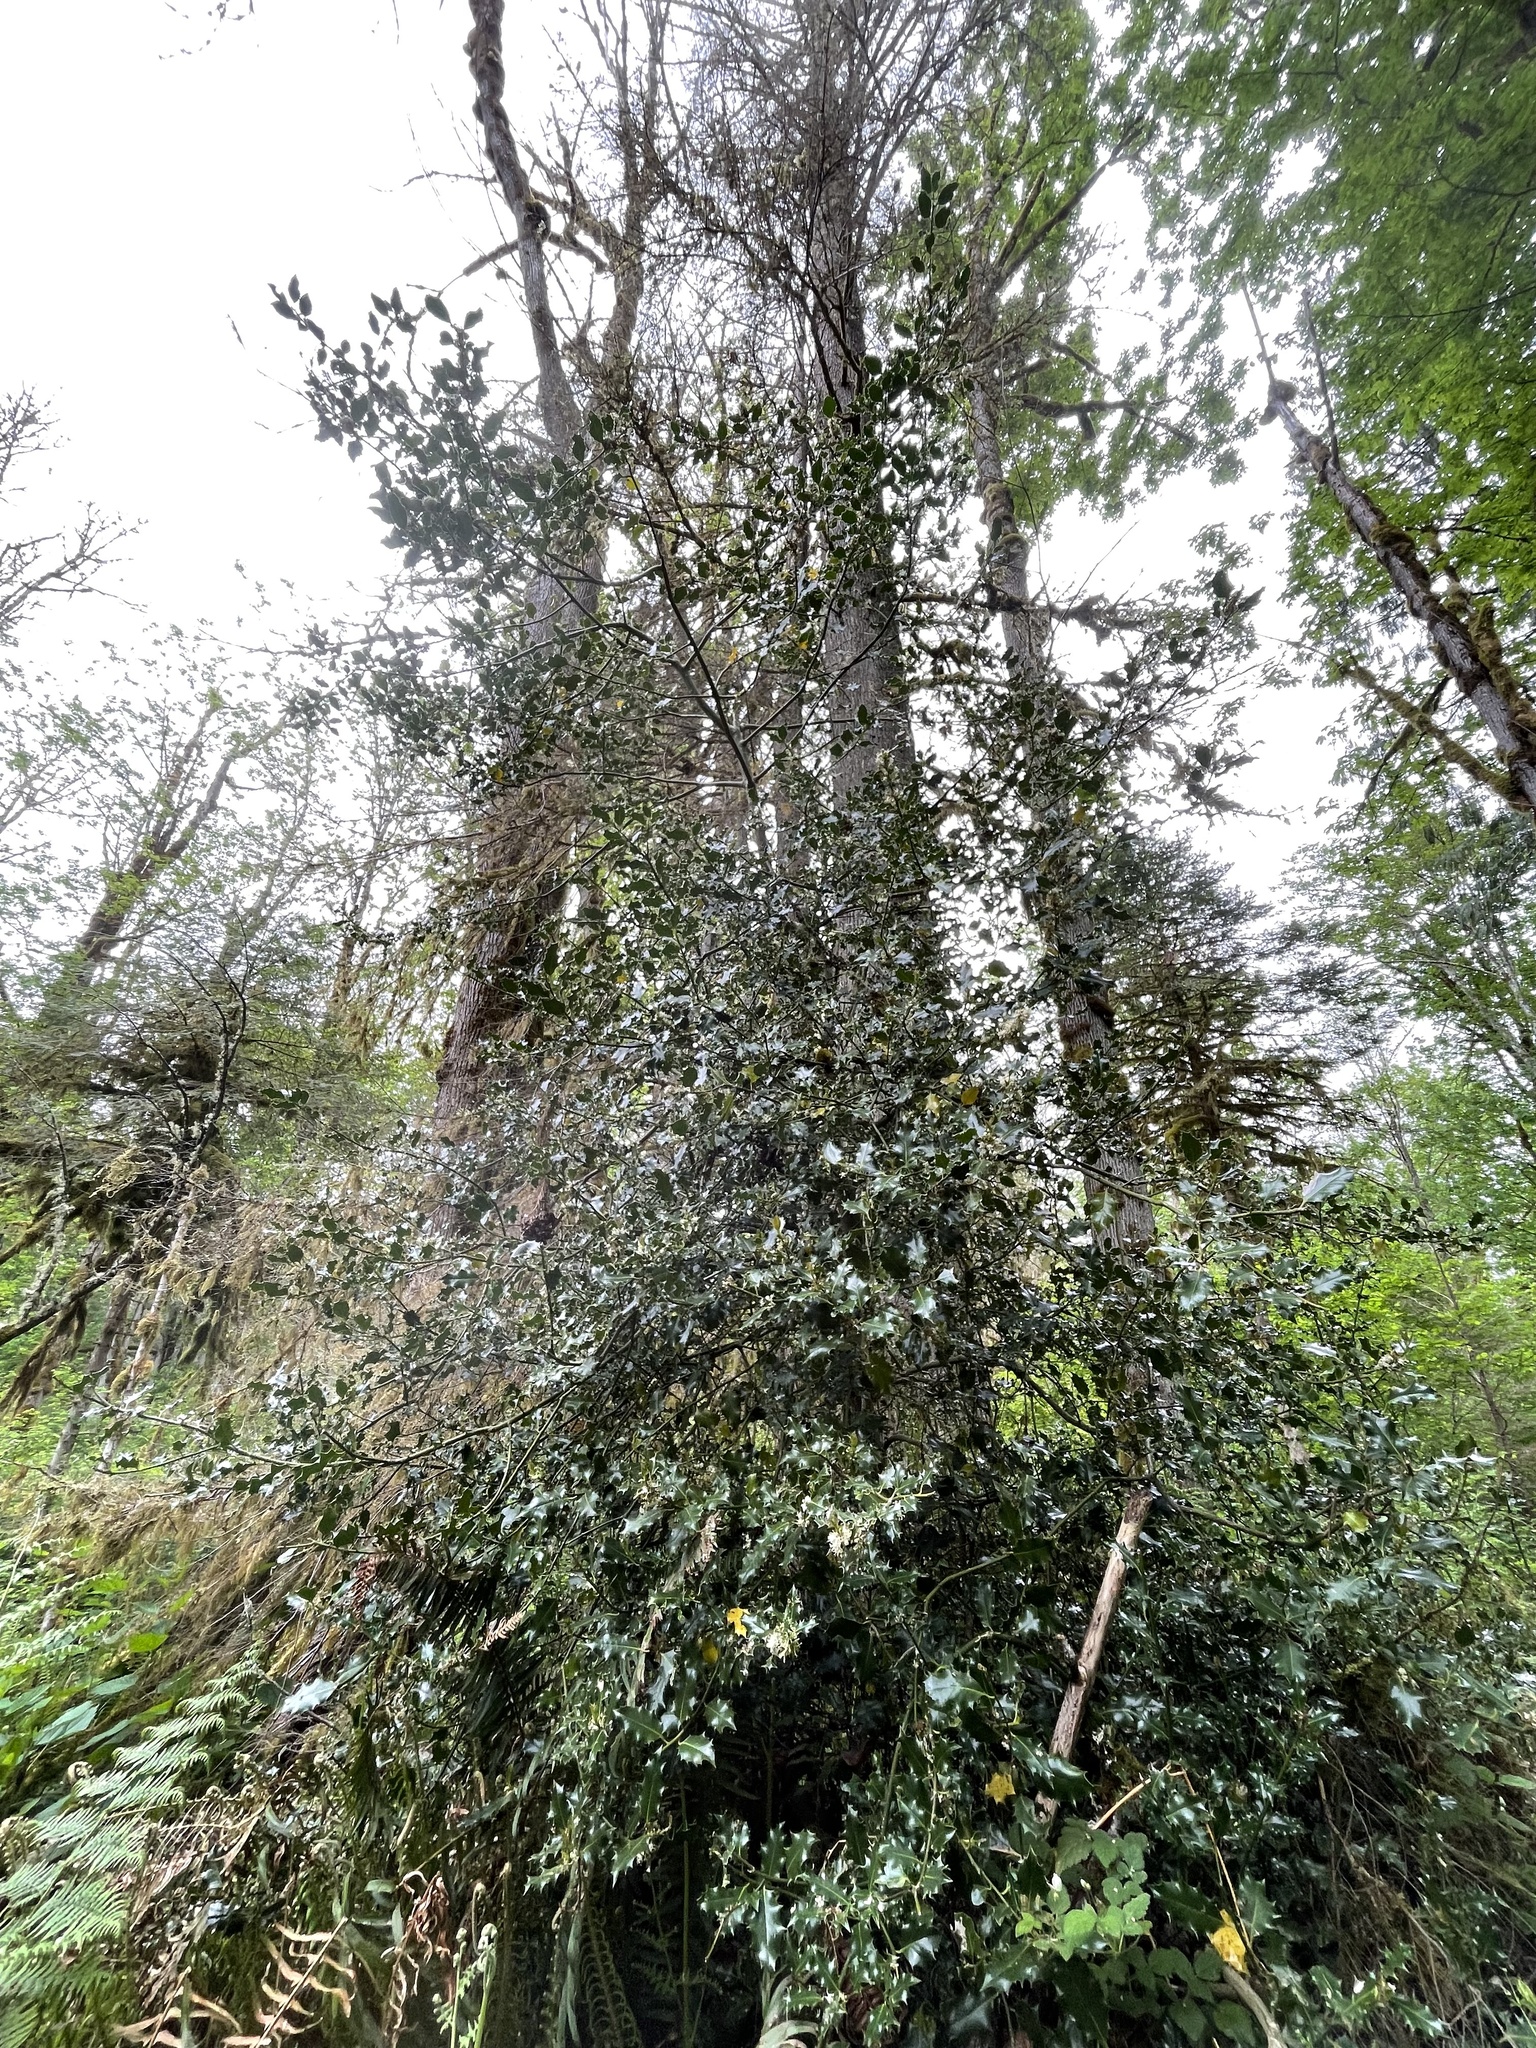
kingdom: Plantae
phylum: Tracheophyta
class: Magnoliopsida
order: Aquifoliales
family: Aquifoliaceae
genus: Ilex
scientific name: Ilex aquifolium
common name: English holly
